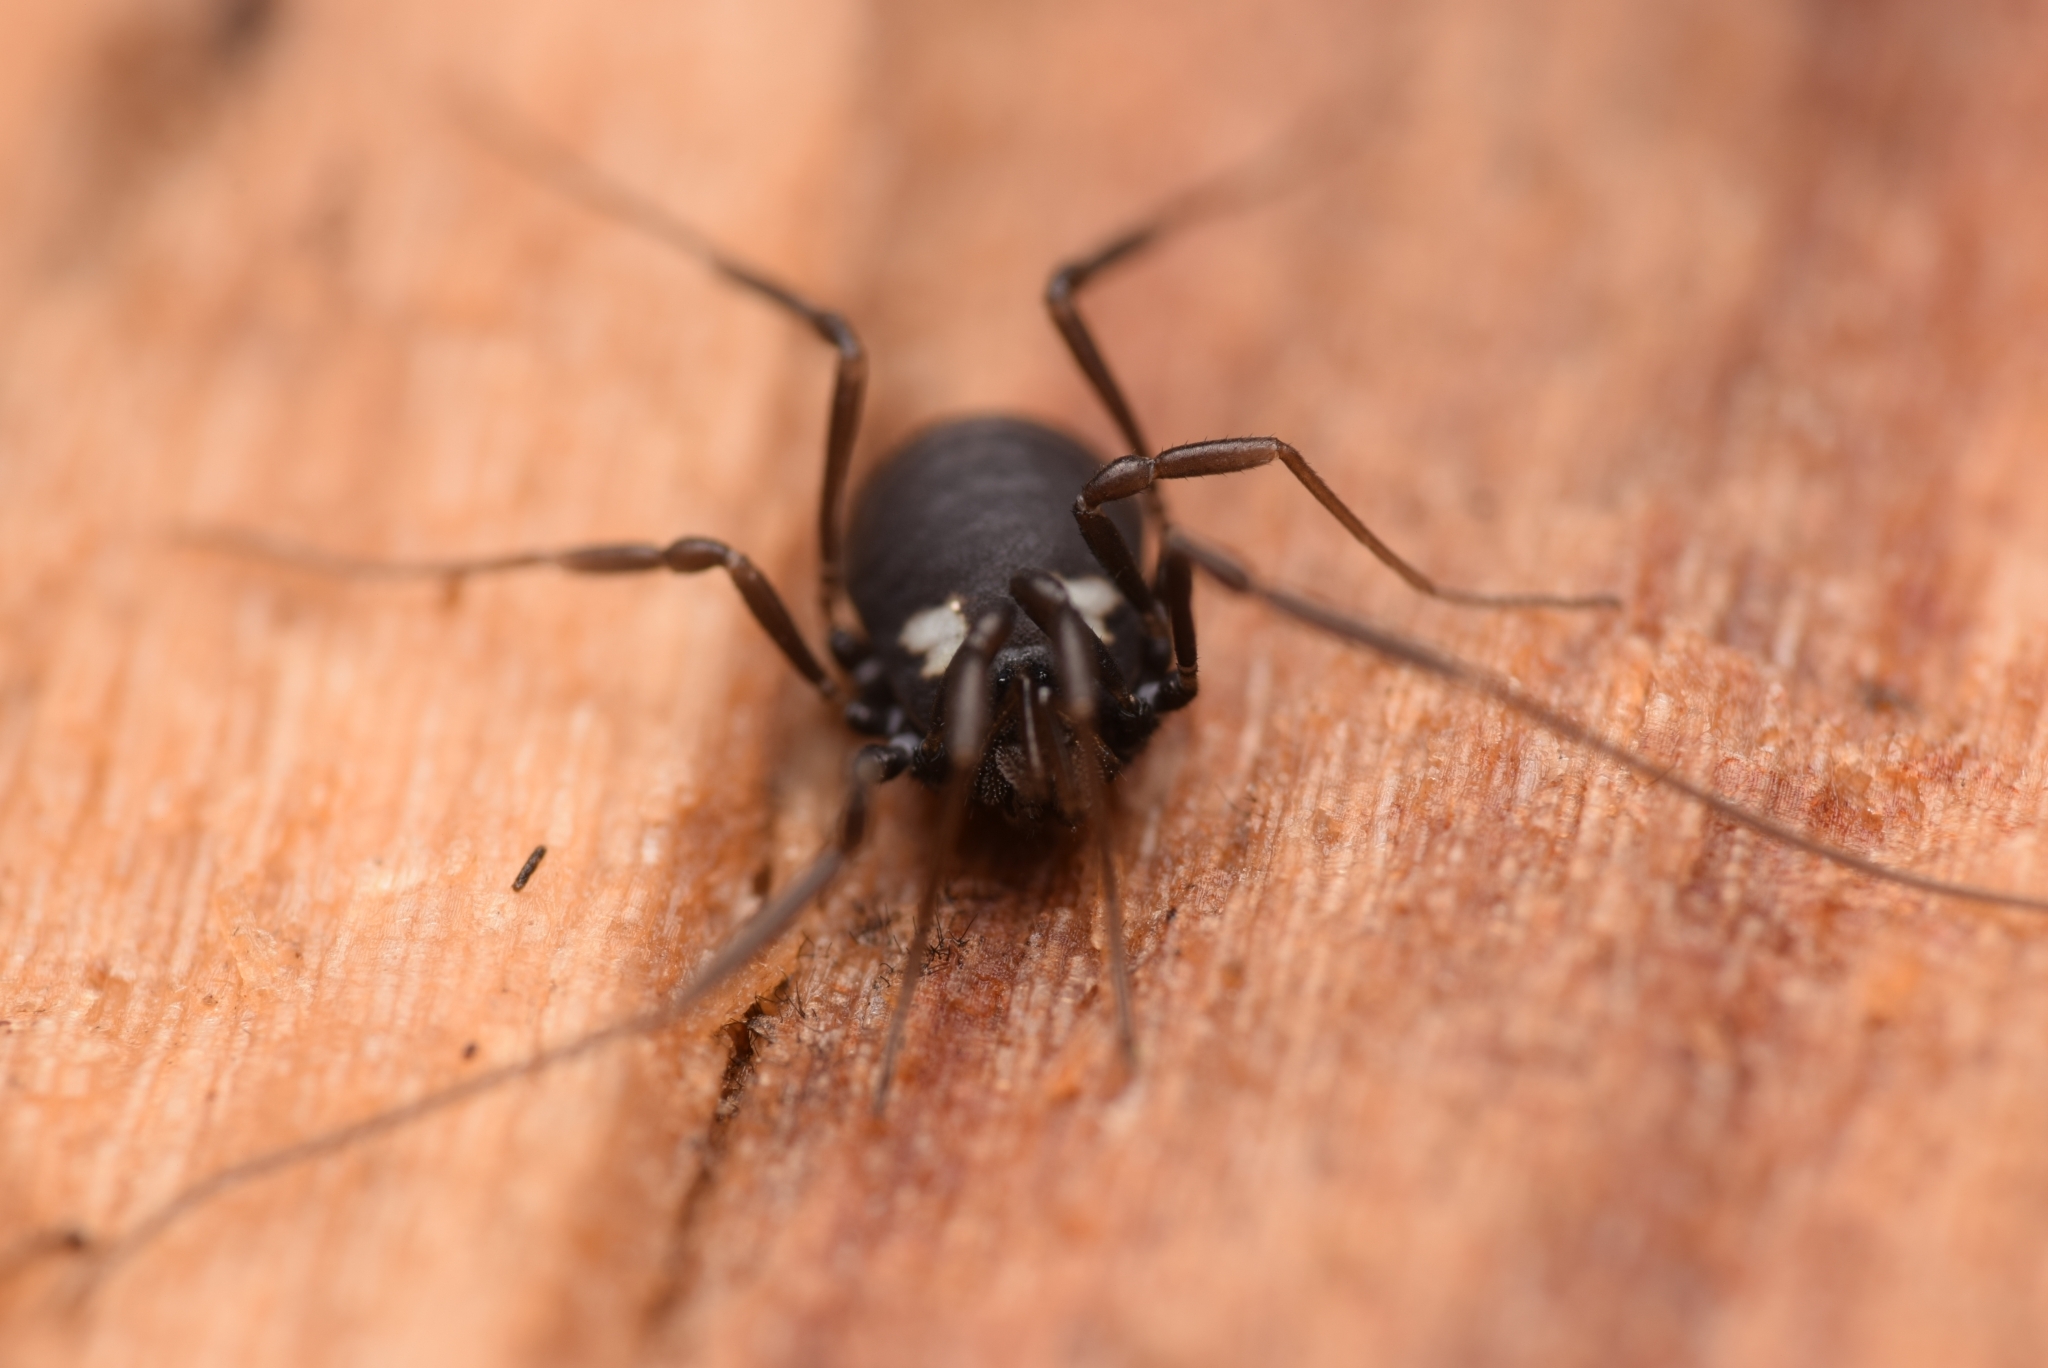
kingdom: Animalia
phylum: Arthropoda
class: Arachnida
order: Opiliones
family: Nemastomatidae
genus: Nemastoma
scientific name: Nemastoma bimaculatum
